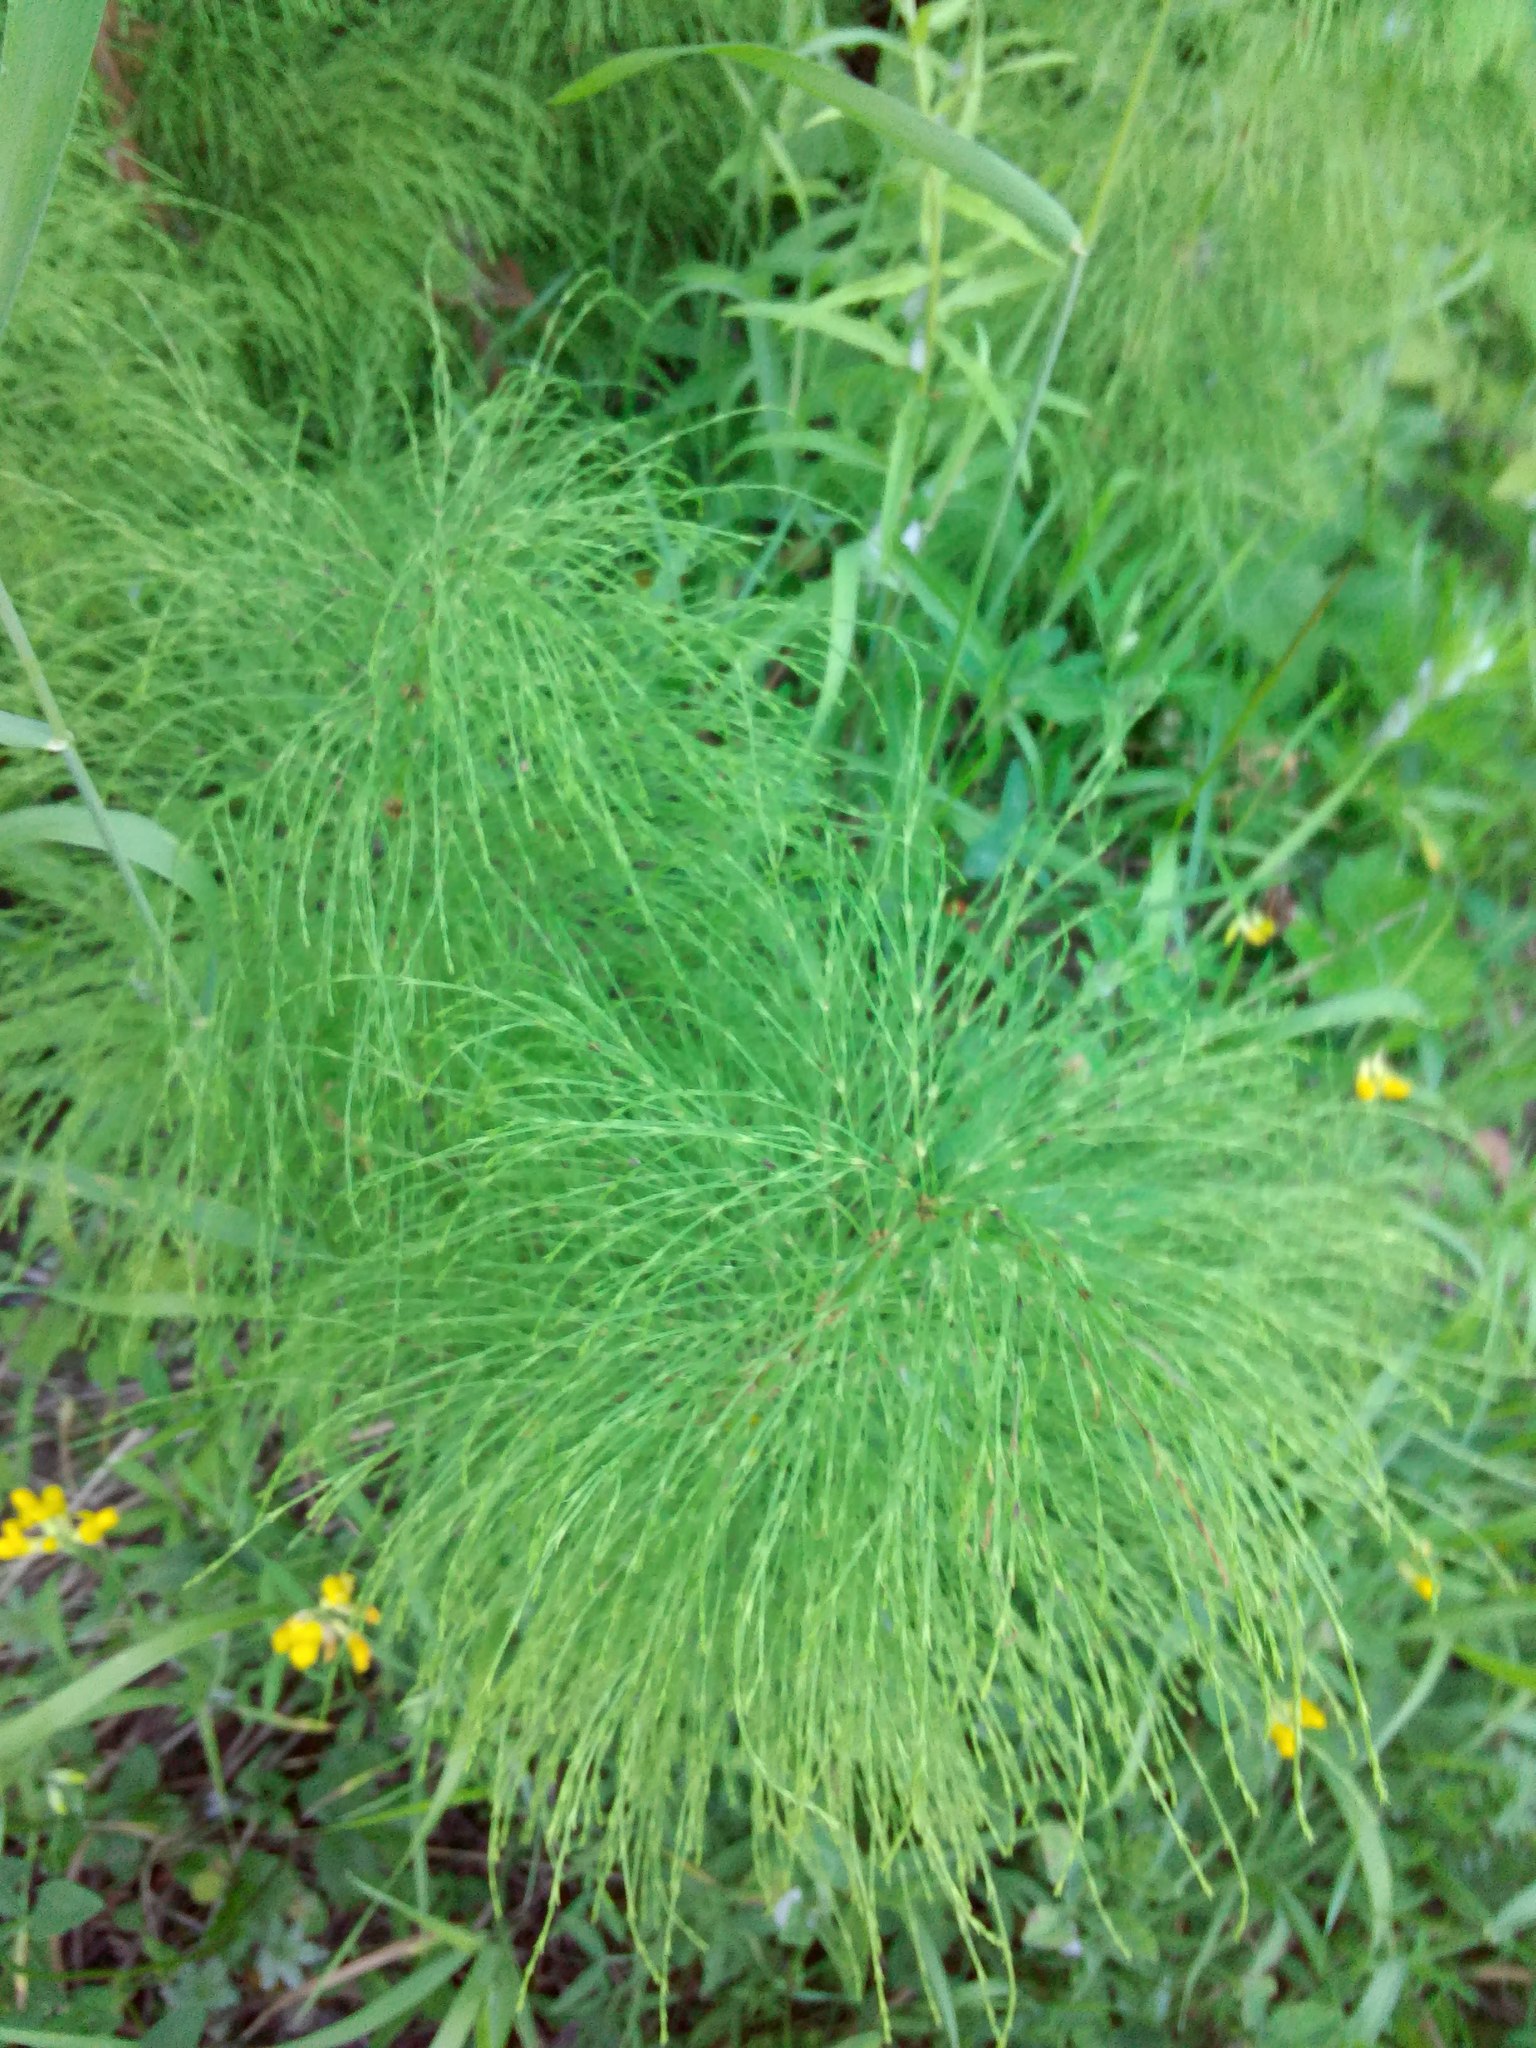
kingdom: Plantae
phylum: Tracheophyta
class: Polypodiopsida
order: Equisetales
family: Equisetaceae
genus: Equisetum
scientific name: Equisetum sylvaticum
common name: Wood horsetail
